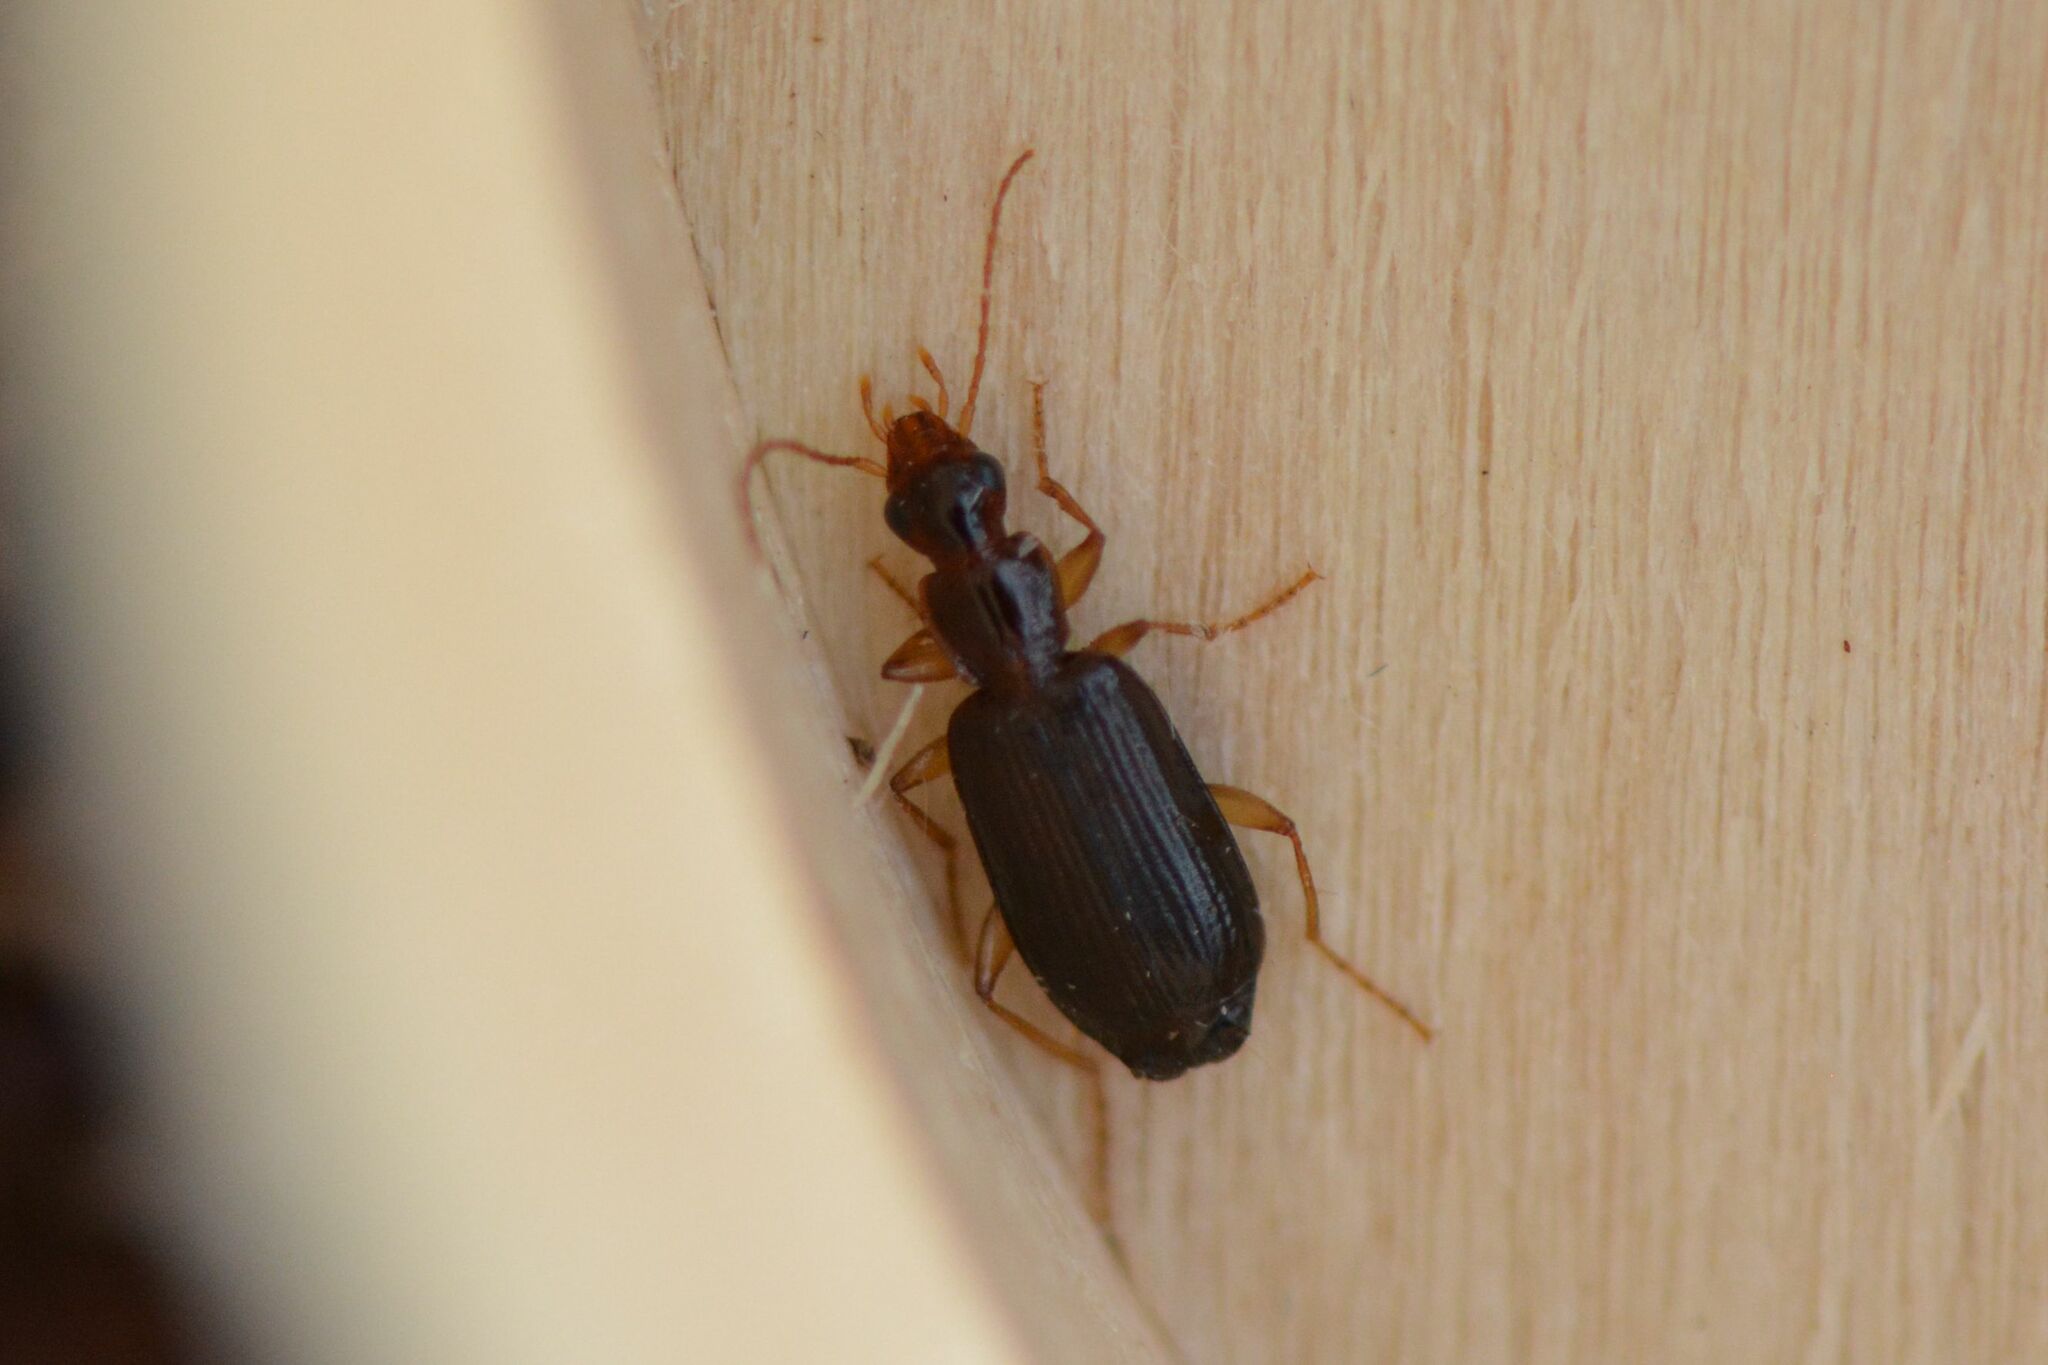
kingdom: Animalia
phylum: Arthropoda
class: Insecta
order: Coleoptera
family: Carabidae
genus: Dromius
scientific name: Dromius agilis
